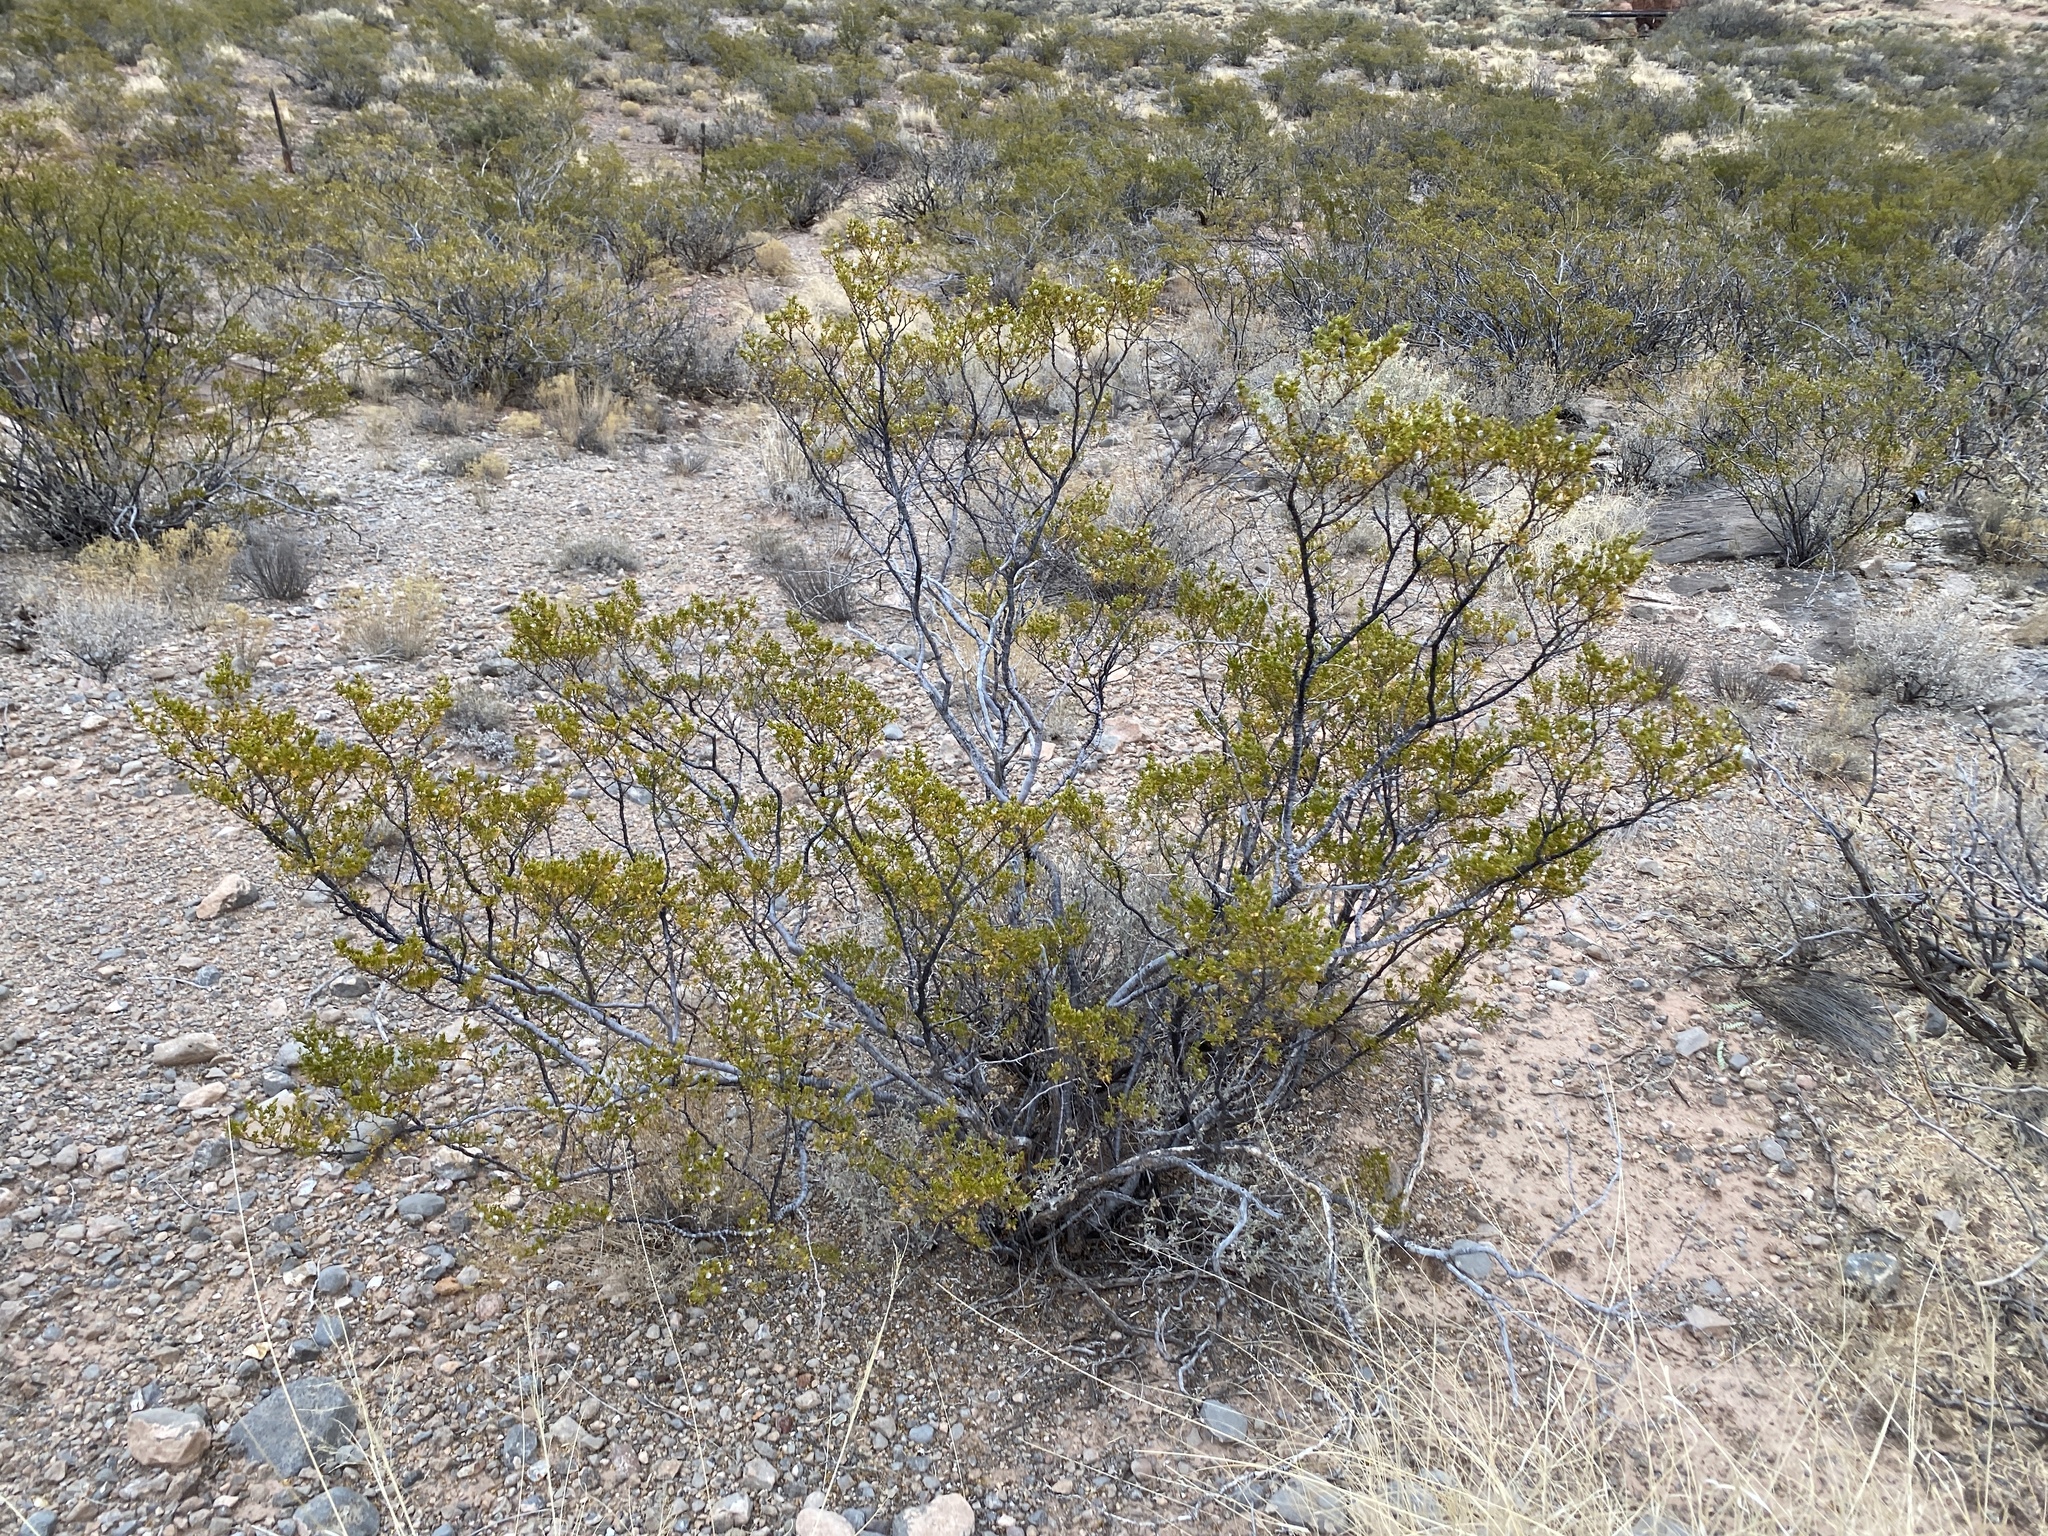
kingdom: Plantae
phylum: Tracheophyta
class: Magnoliopsida
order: Zygophyllales
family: Zygophyllaceae
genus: Larrea
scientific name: Larrea tridentata
